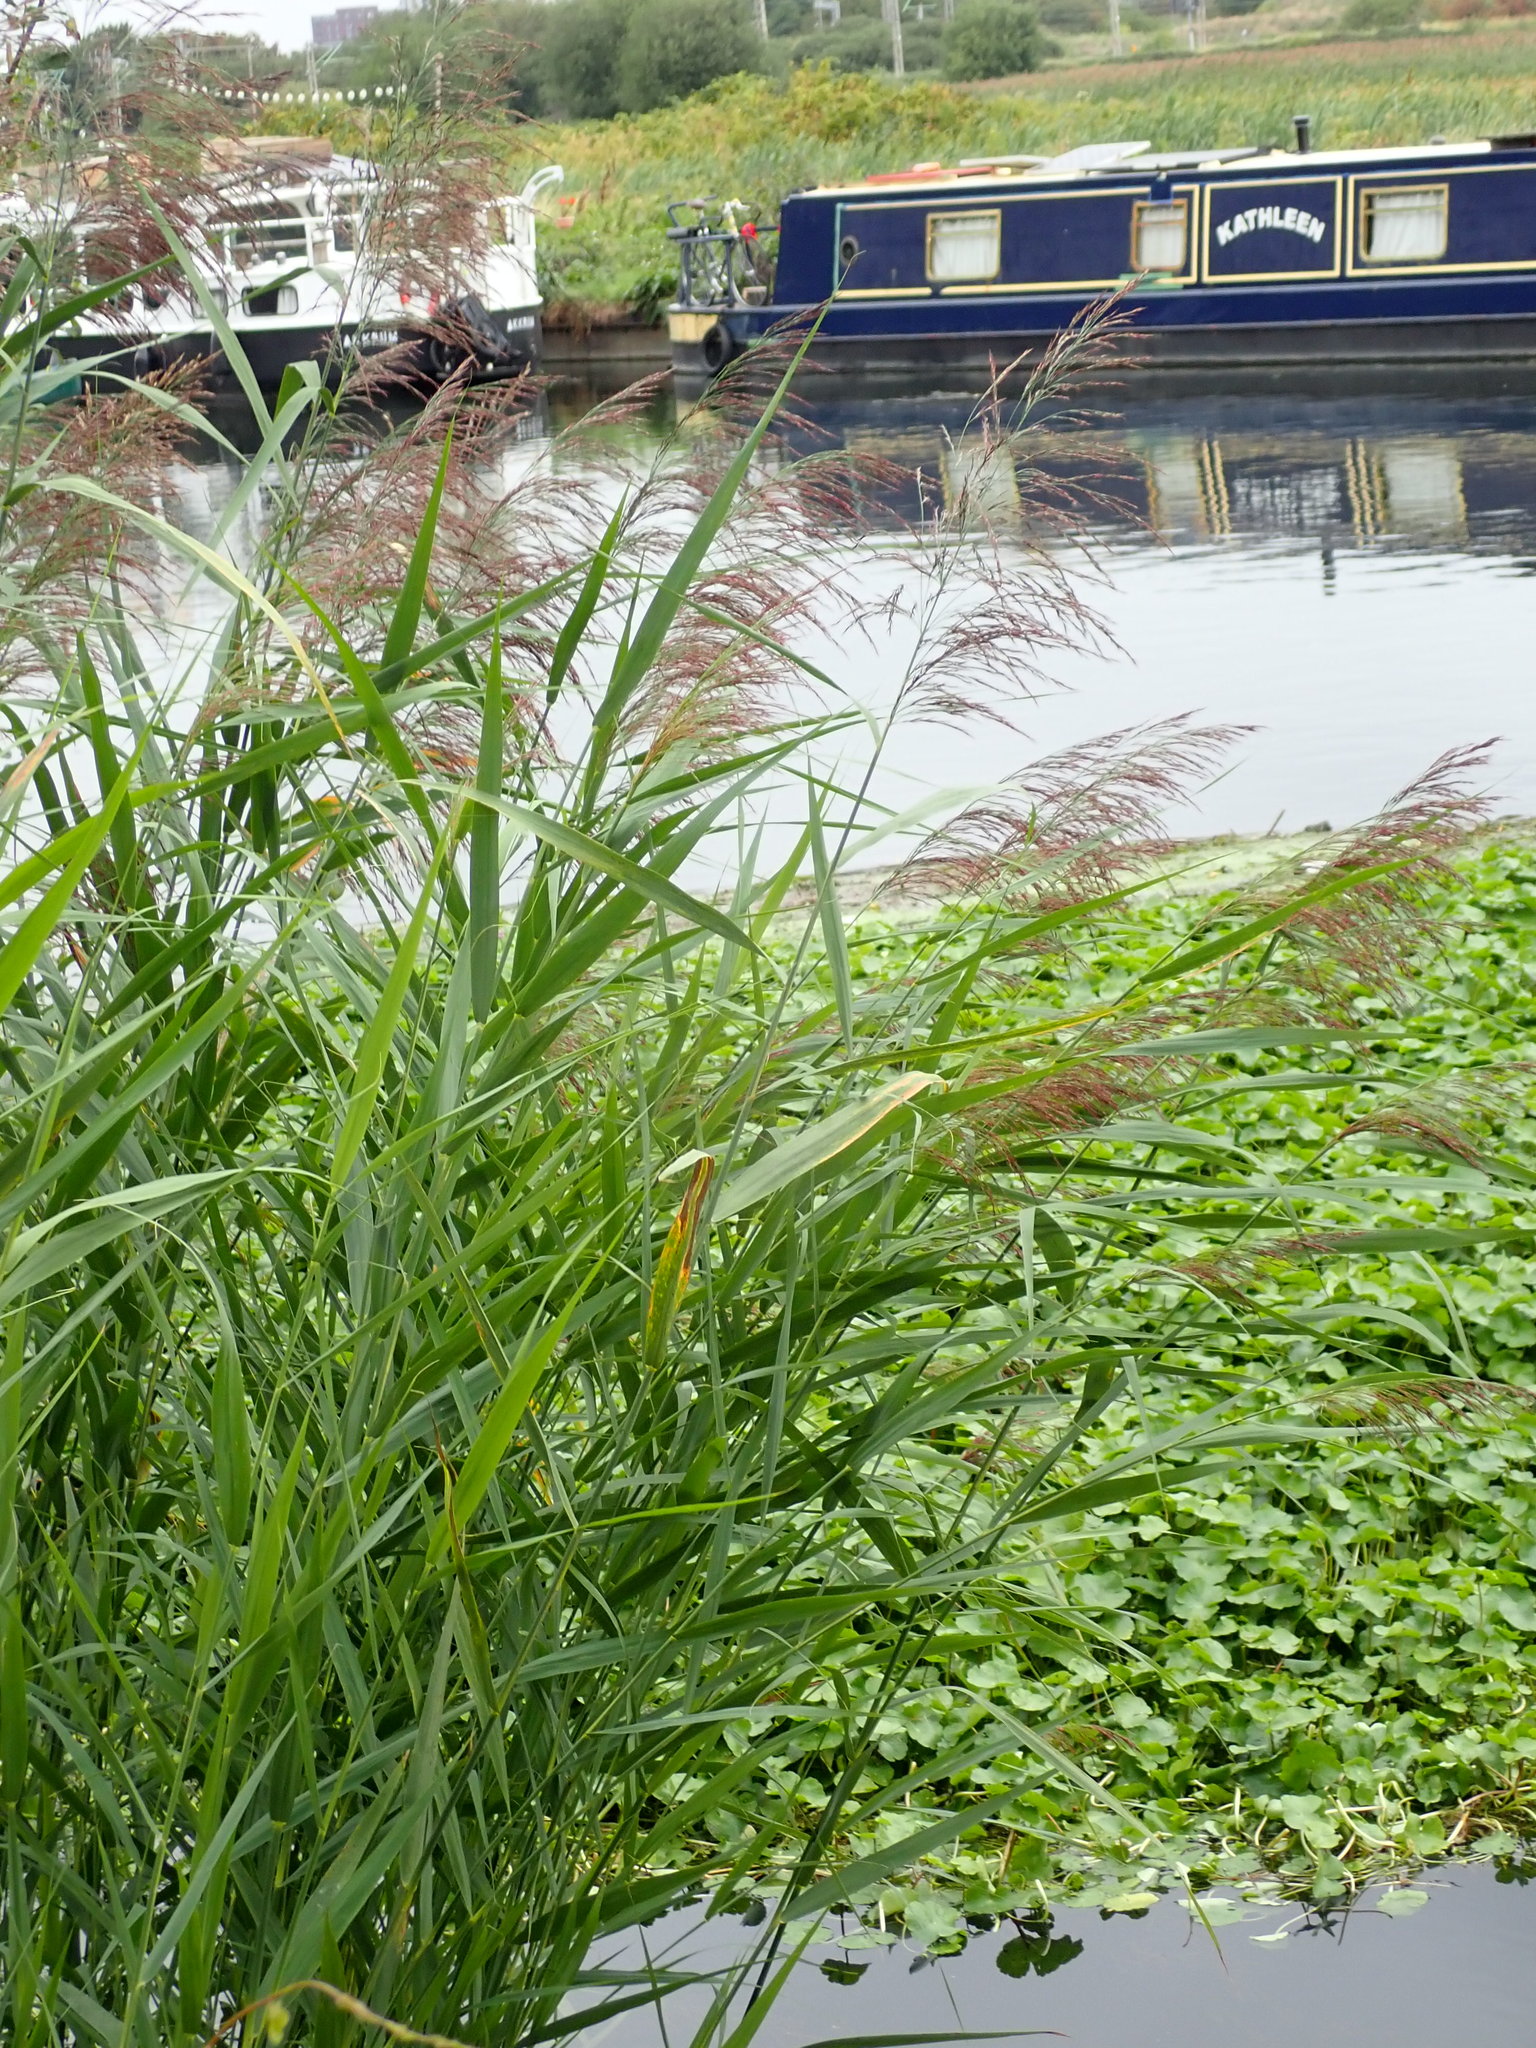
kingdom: Plantae
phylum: Tracheophyta
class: Liliopsida
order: Poales
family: Poaceae
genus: Phragmites
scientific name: Phragmites australis
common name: Common reed
